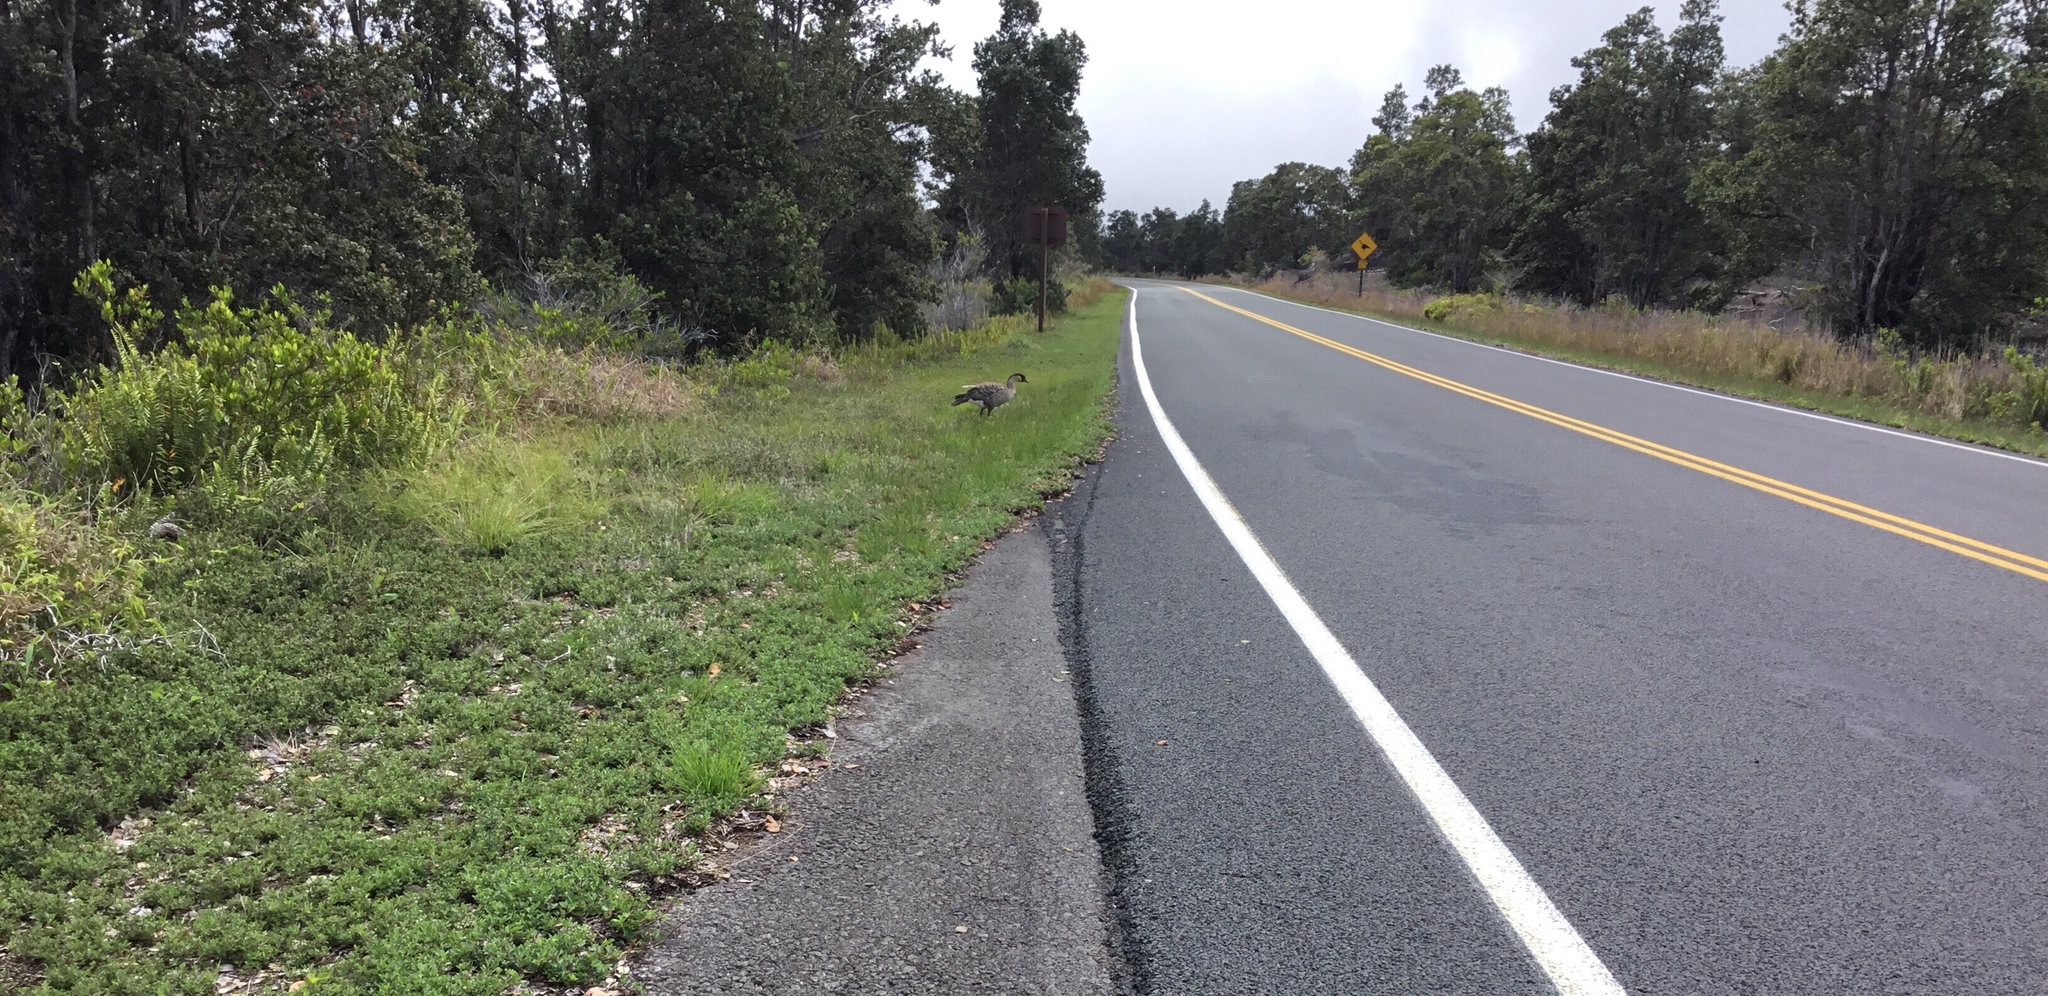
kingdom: Animalia
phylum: Chordata
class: Aves
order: Anseriformes
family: Anatidae
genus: Branta
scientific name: Branta sandvicensis
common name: Nene
